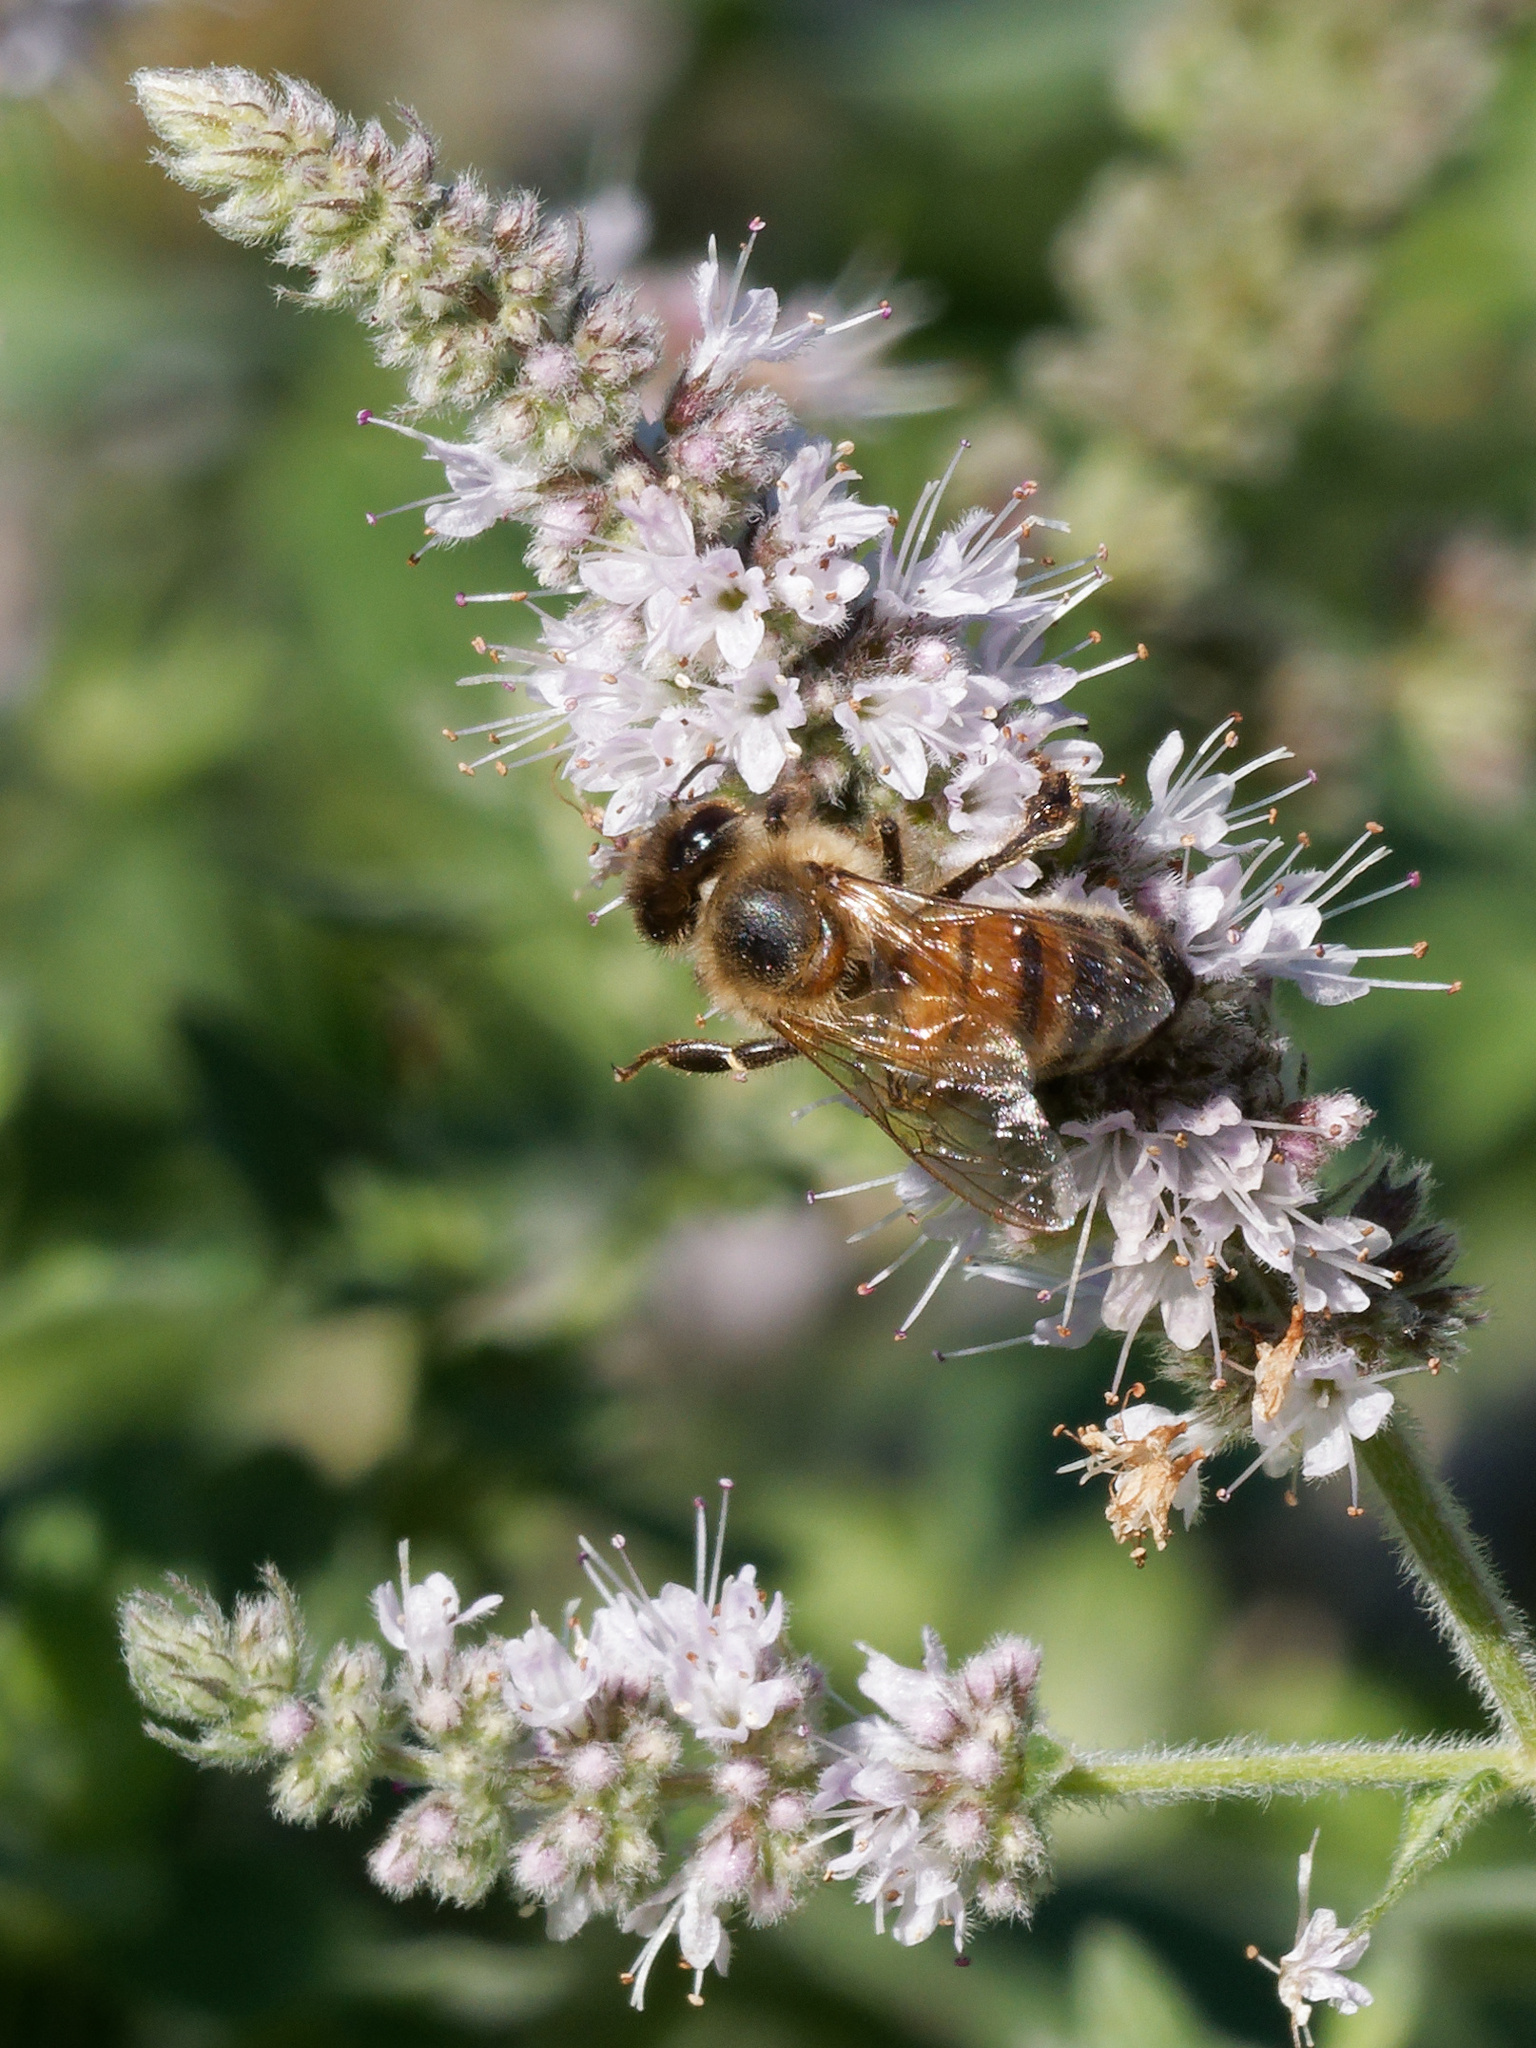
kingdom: Animalia
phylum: Arthropoda
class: Insecta
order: Hymenoptera
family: Apidae
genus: Apis
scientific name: Apis mellifera
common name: Honey bee
